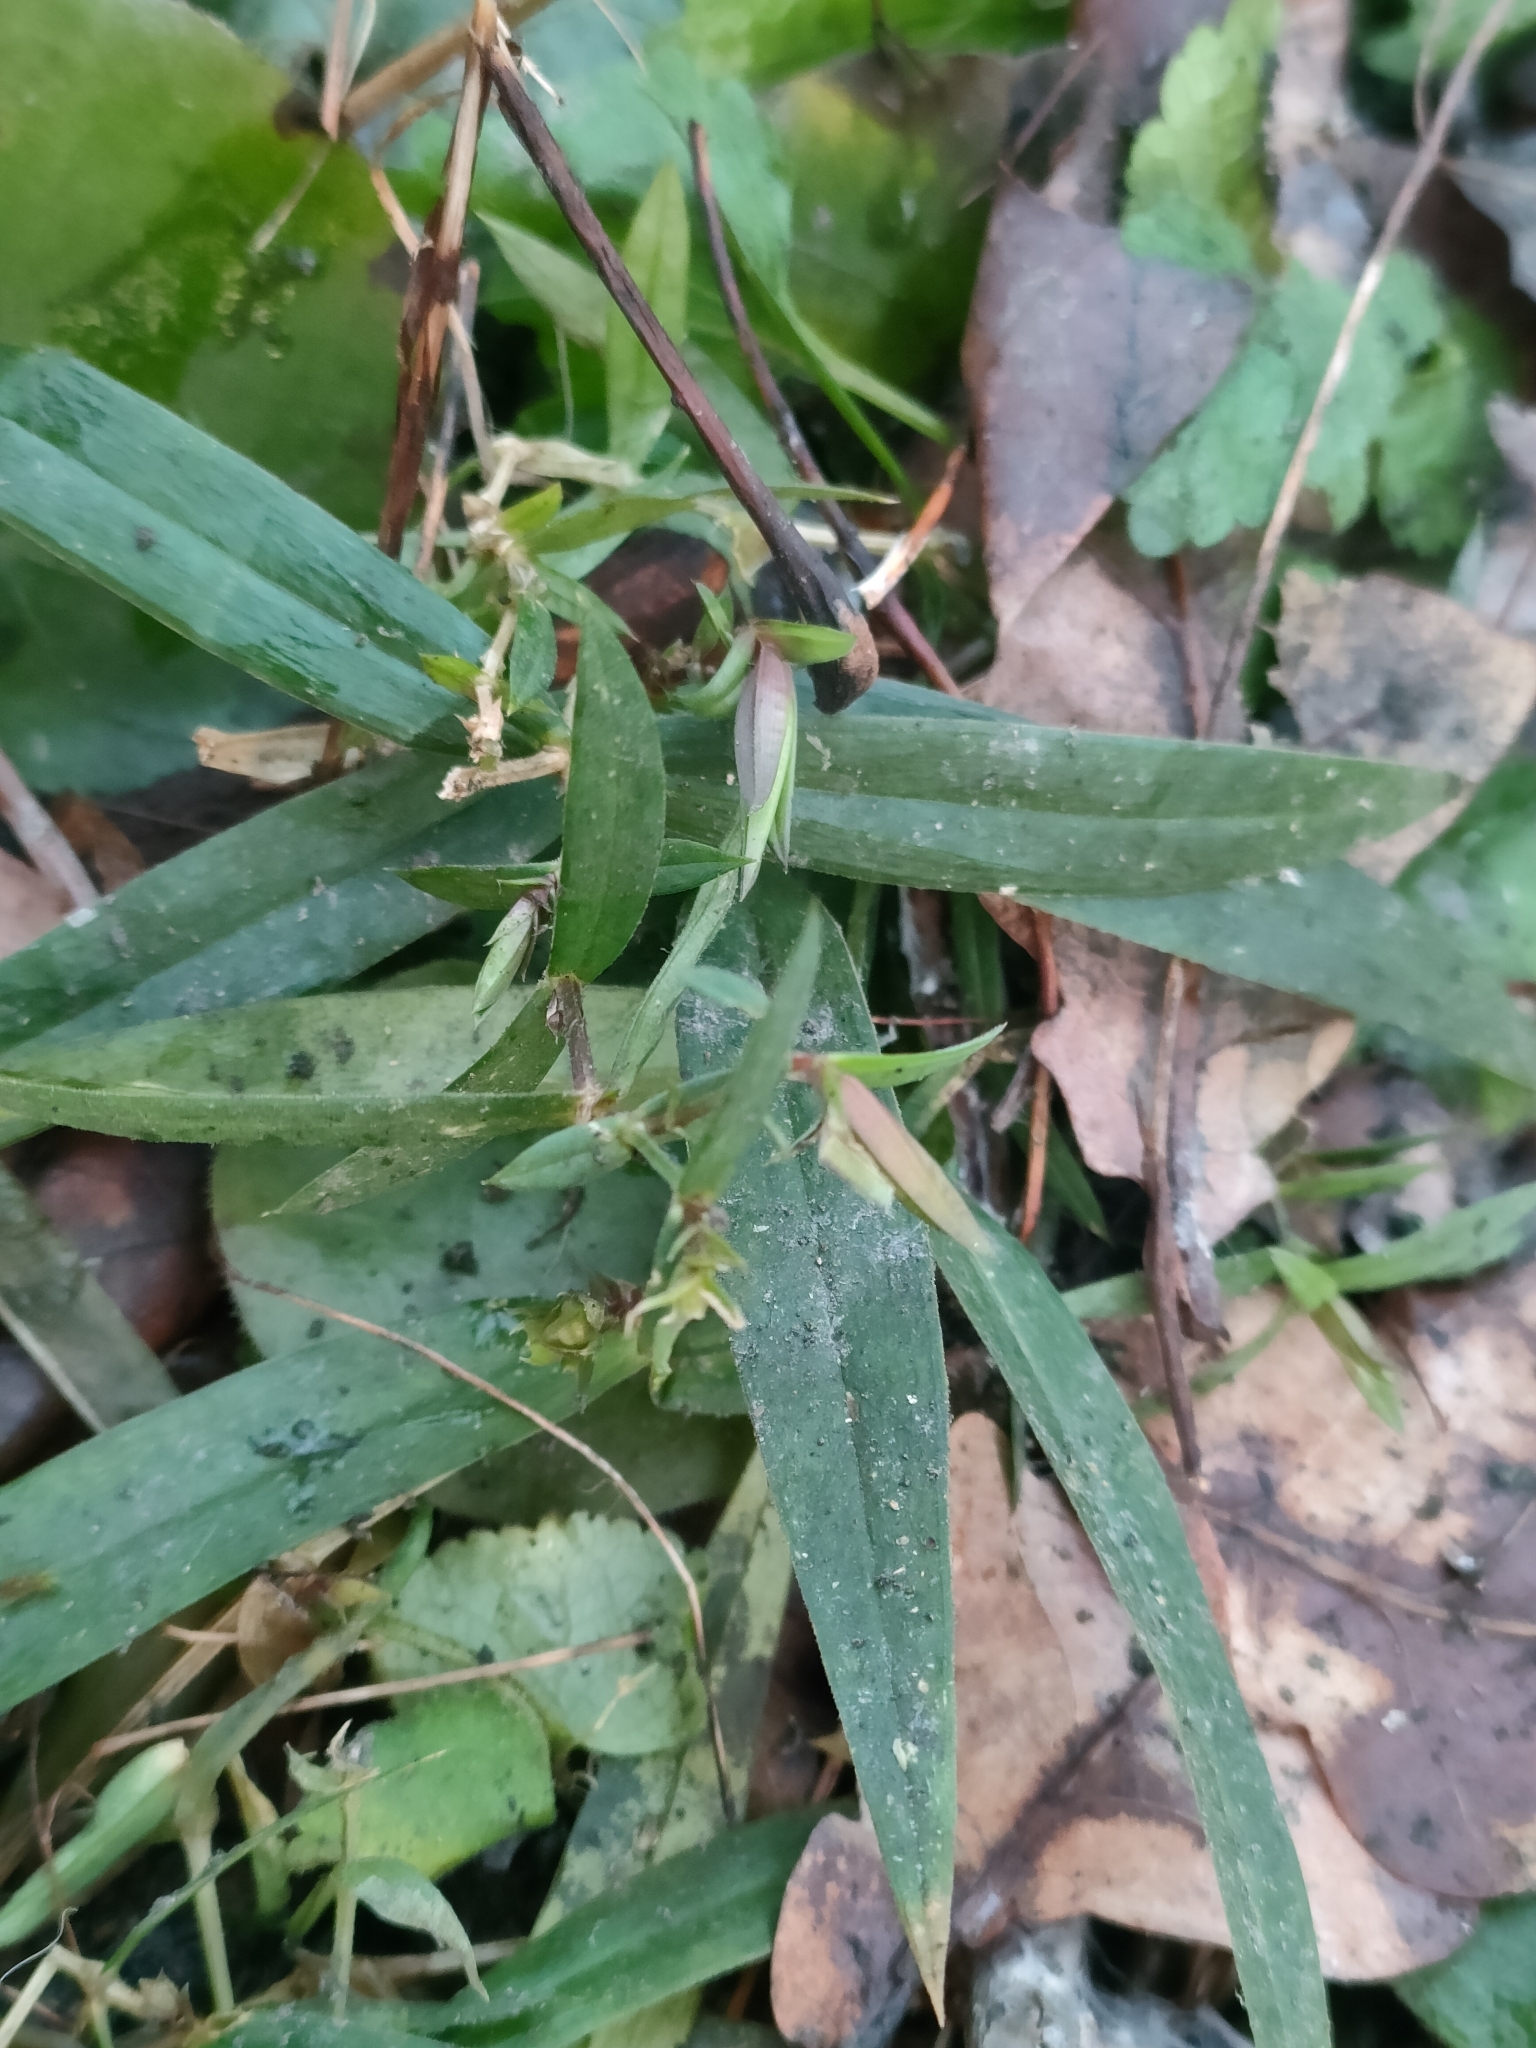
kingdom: Plantae
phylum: Tracheophyta
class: Magnoliopsida
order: Caryophyllales
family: Caryophyllaceae
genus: Rabelera
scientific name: Rabelera holostea
